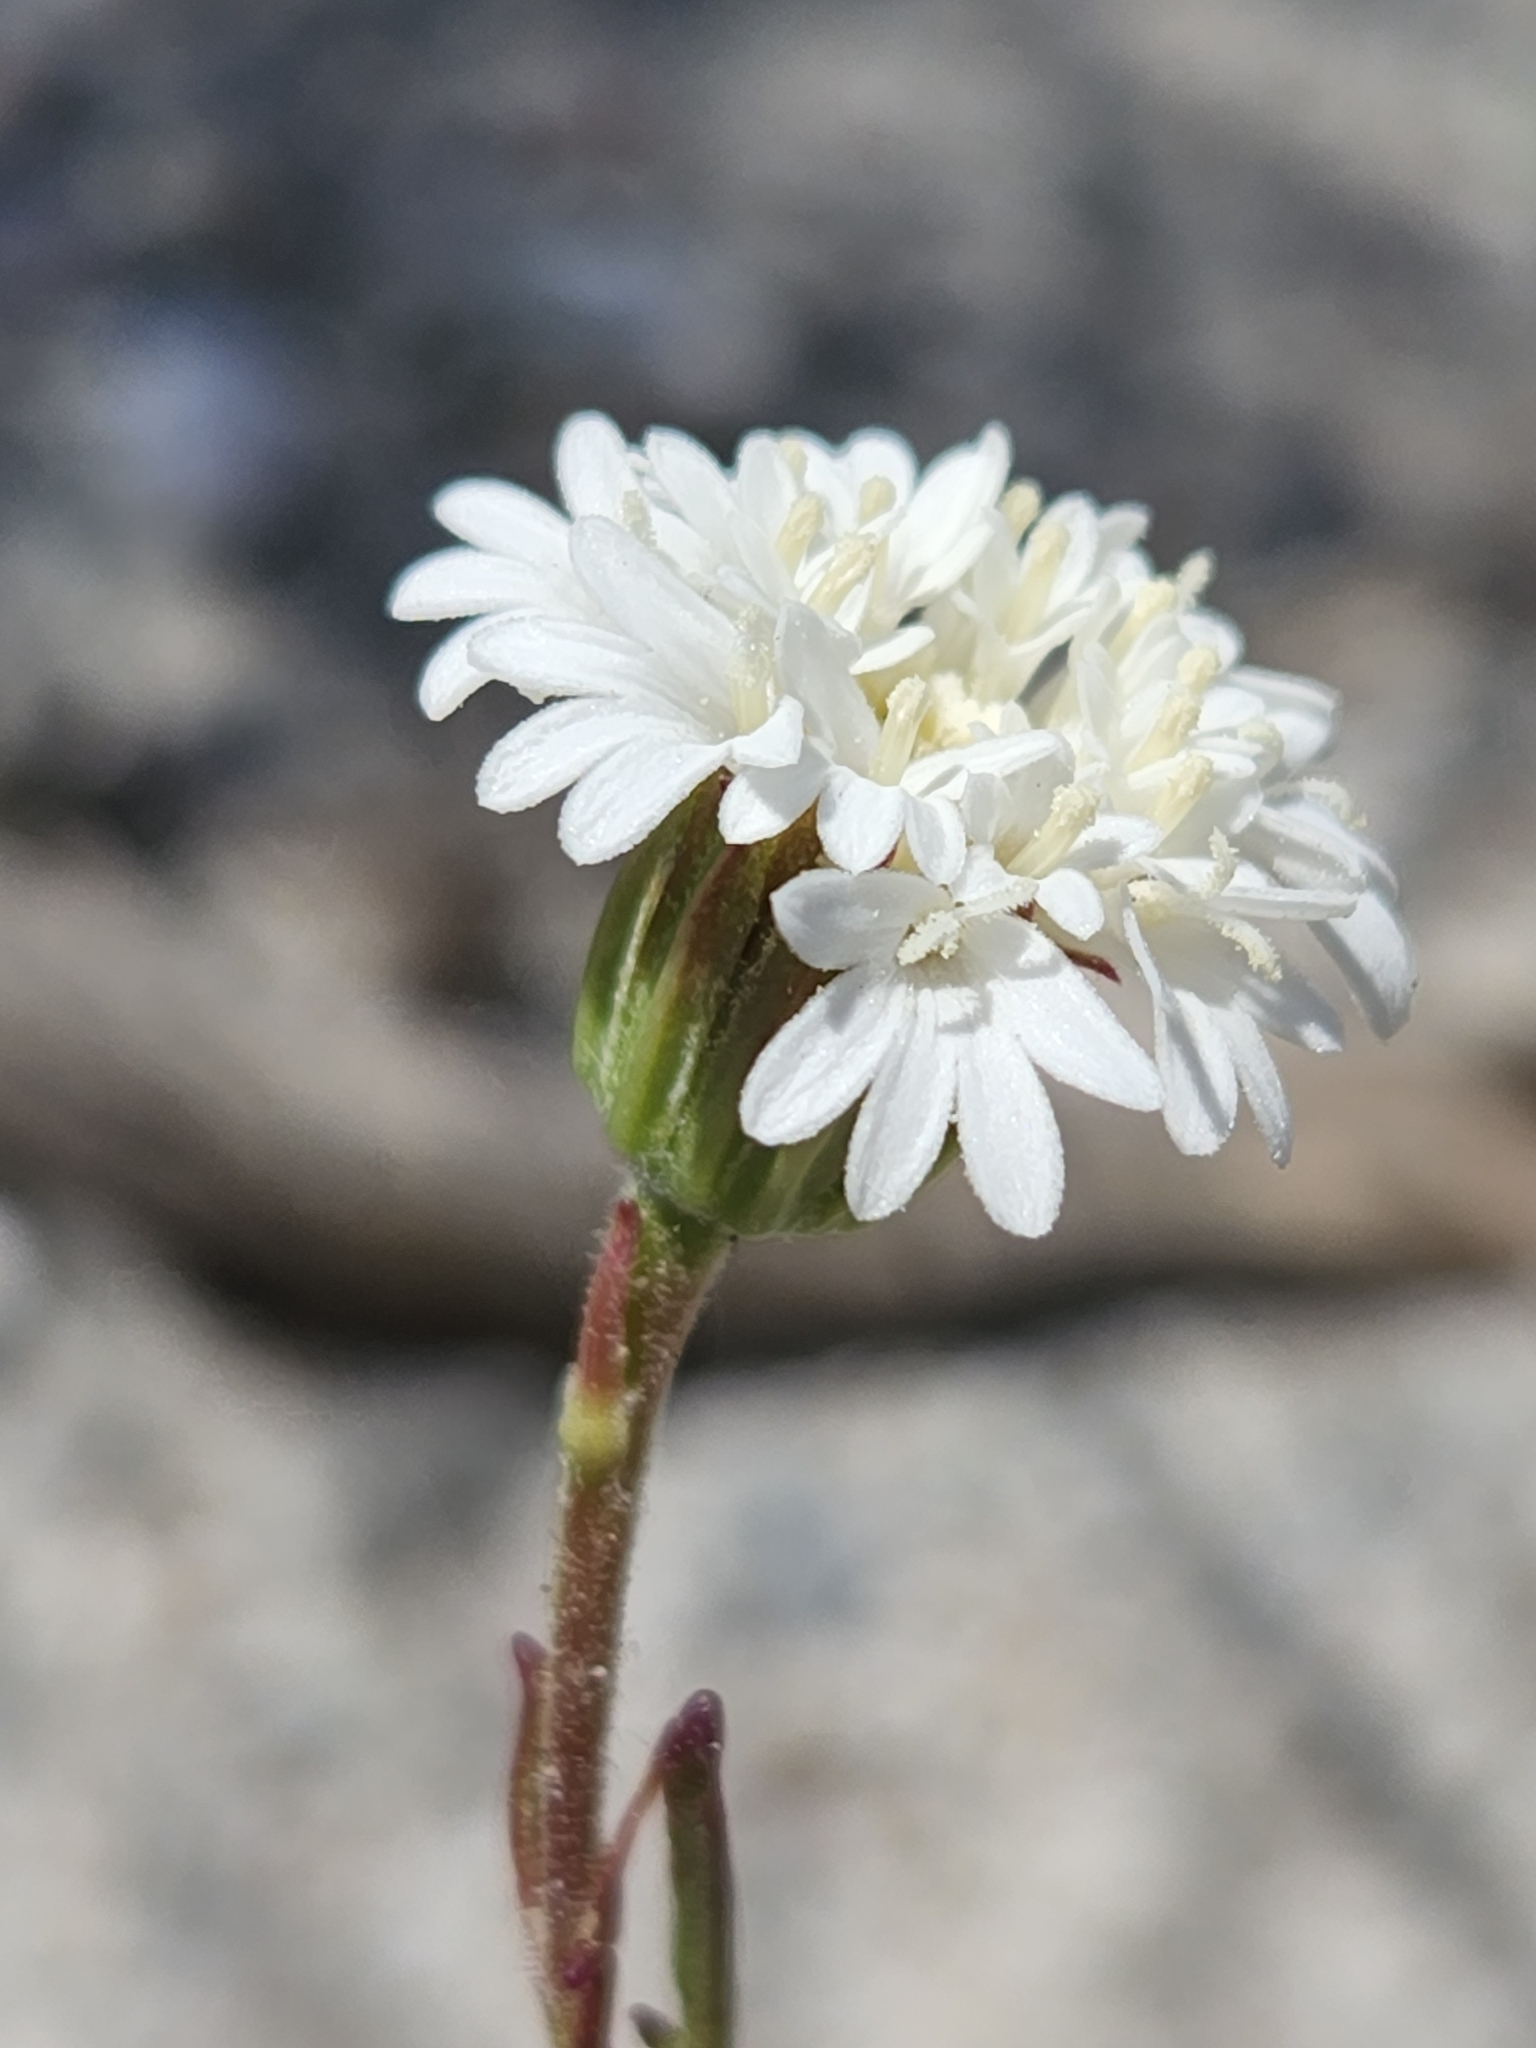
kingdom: Plantae
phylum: Tracheophyta
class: Magnoliopsida
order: Asterales
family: Asteraceae
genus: Chaenactis
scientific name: Chaenactis fremontii
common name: Fremont pincushion
